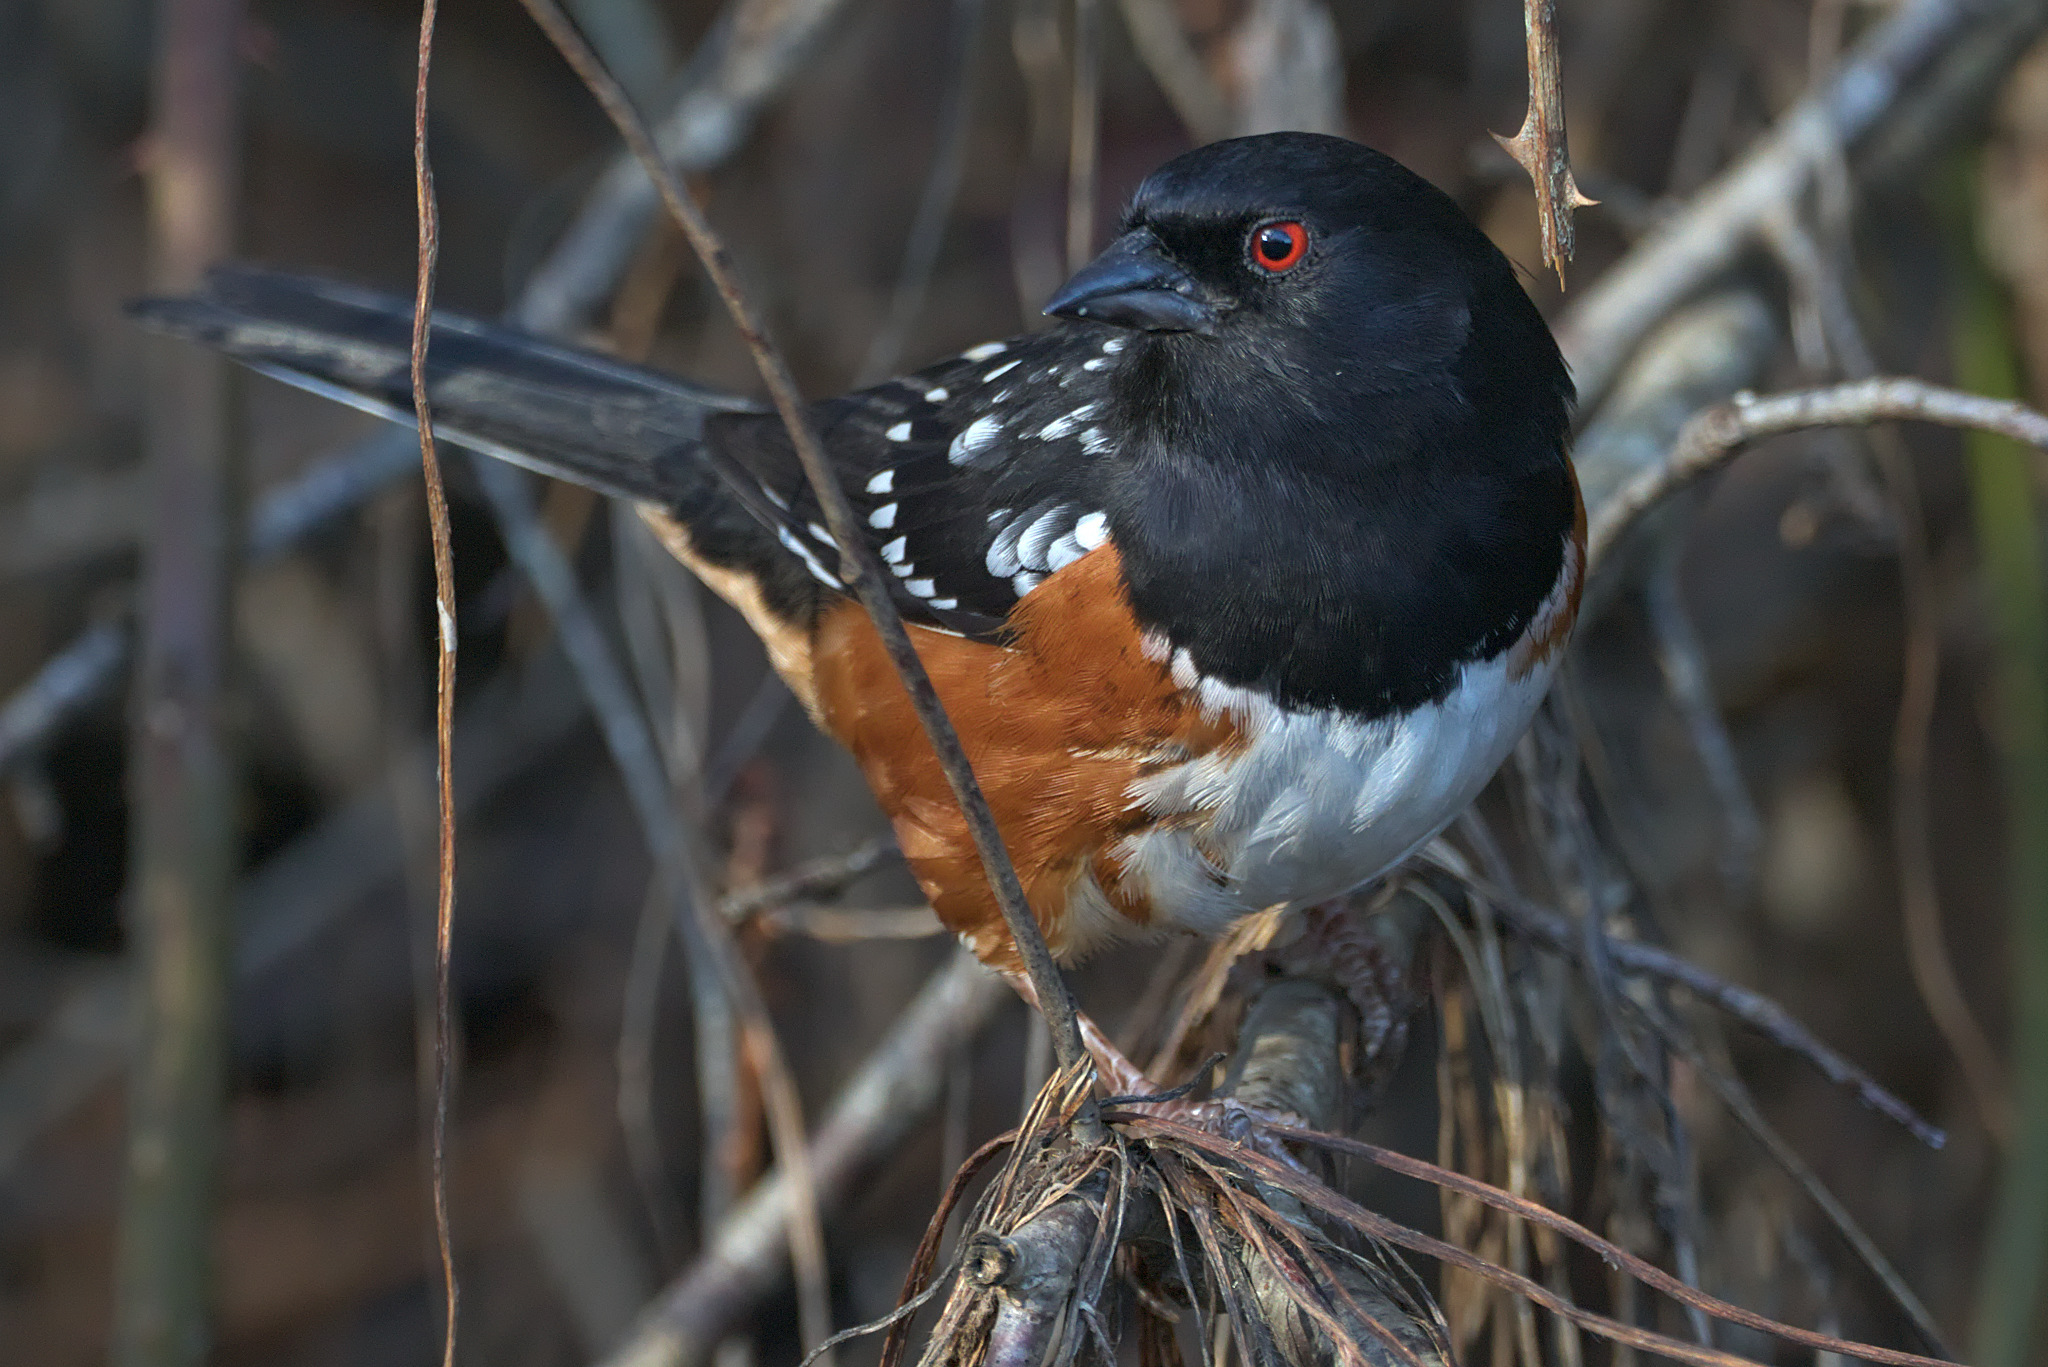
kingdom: Animalia
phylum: Chordata
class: Aves
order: Passeriformes
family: Passerellidae
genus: Pipilo
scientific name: Pipilo maculatus
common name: Spotted towhee
